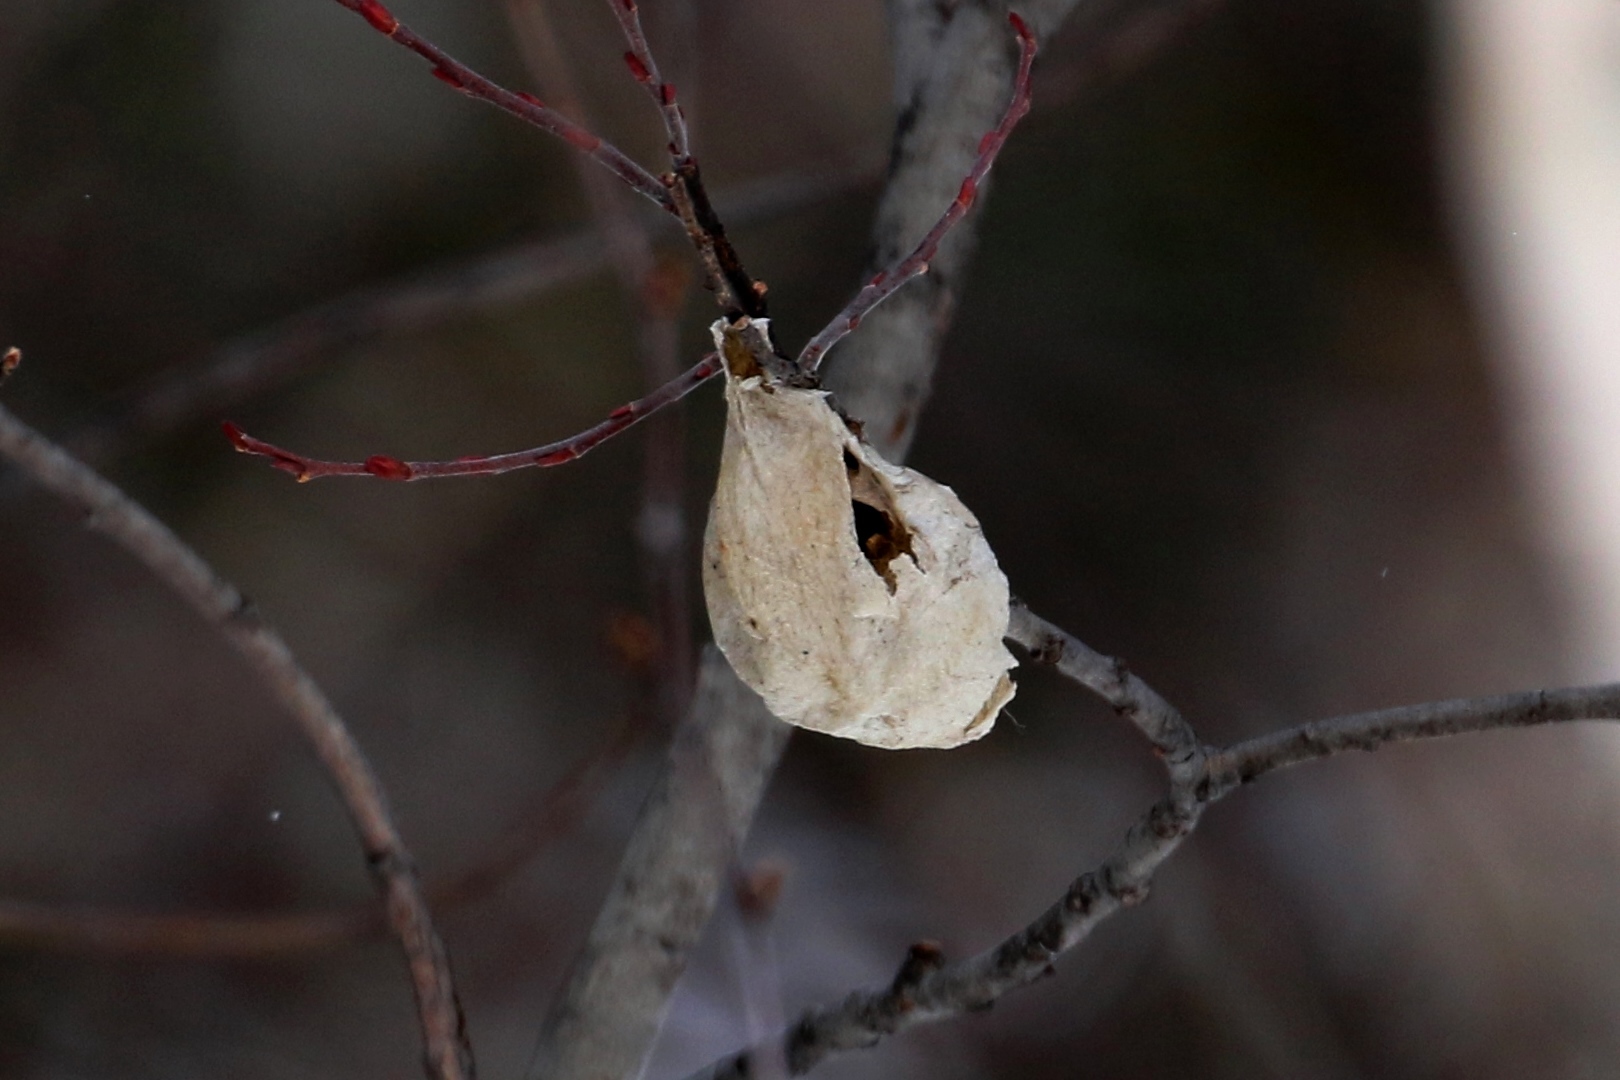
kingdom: Animalia
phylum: Arthropoda
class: Insecta
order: Lepidoptera
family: Saturniidae
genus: Hyalophora
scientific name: Hyalophora cecropia
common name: Cecropia silkmoth
